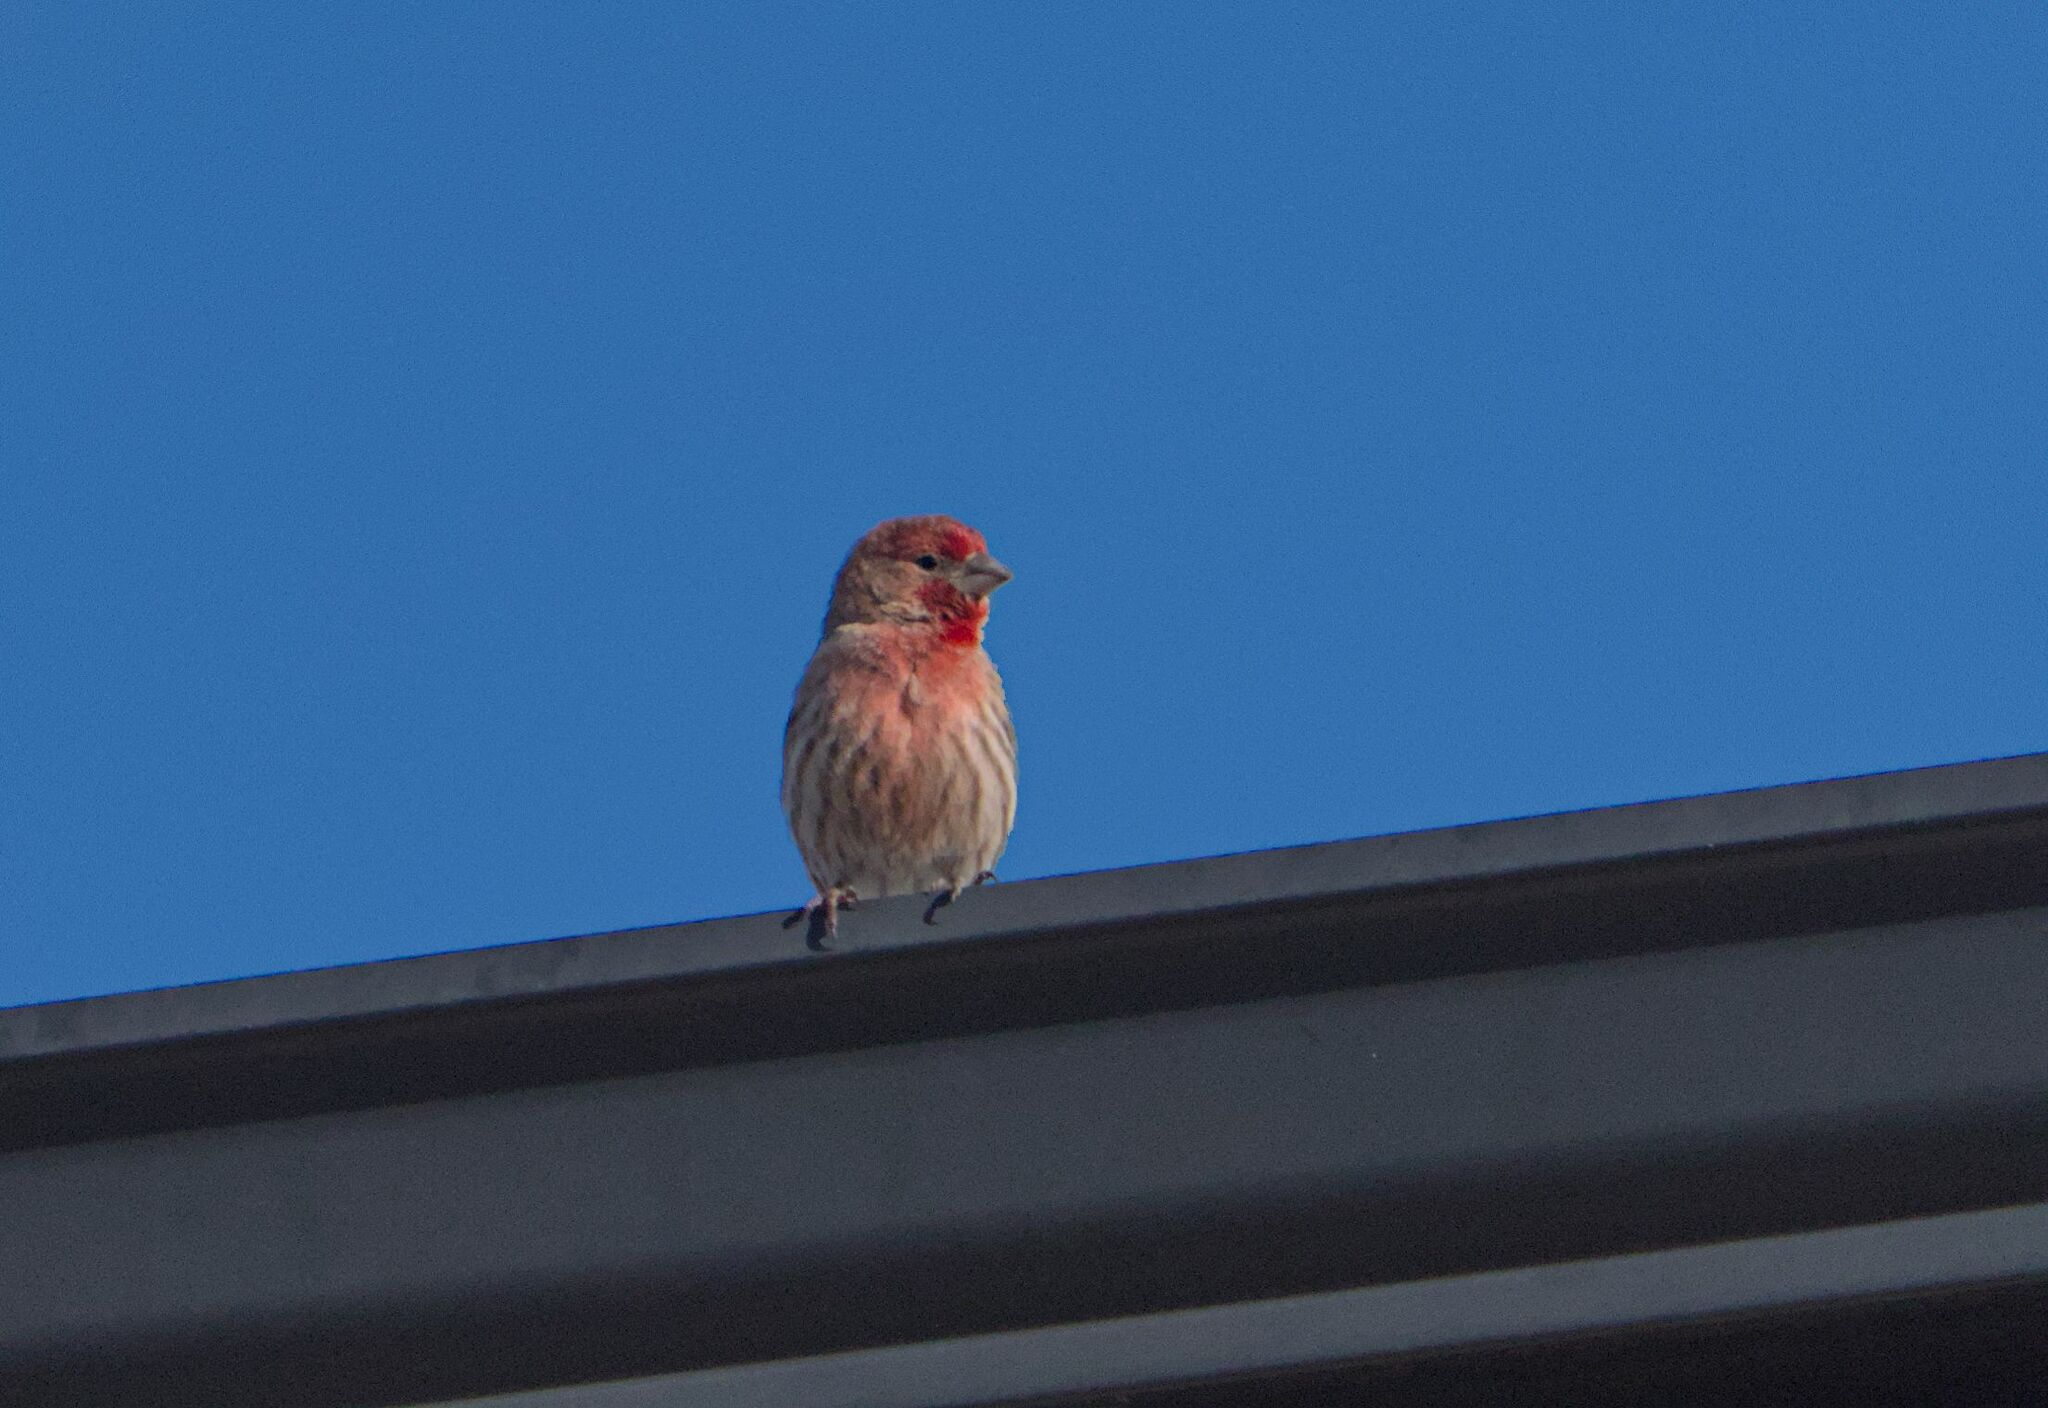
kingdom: Animalia
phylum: Chordata
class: Aves
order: Passeriformes
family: Fringillidae
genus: Haemorhous
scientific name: Haemorhous mexicanus
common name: House finch
